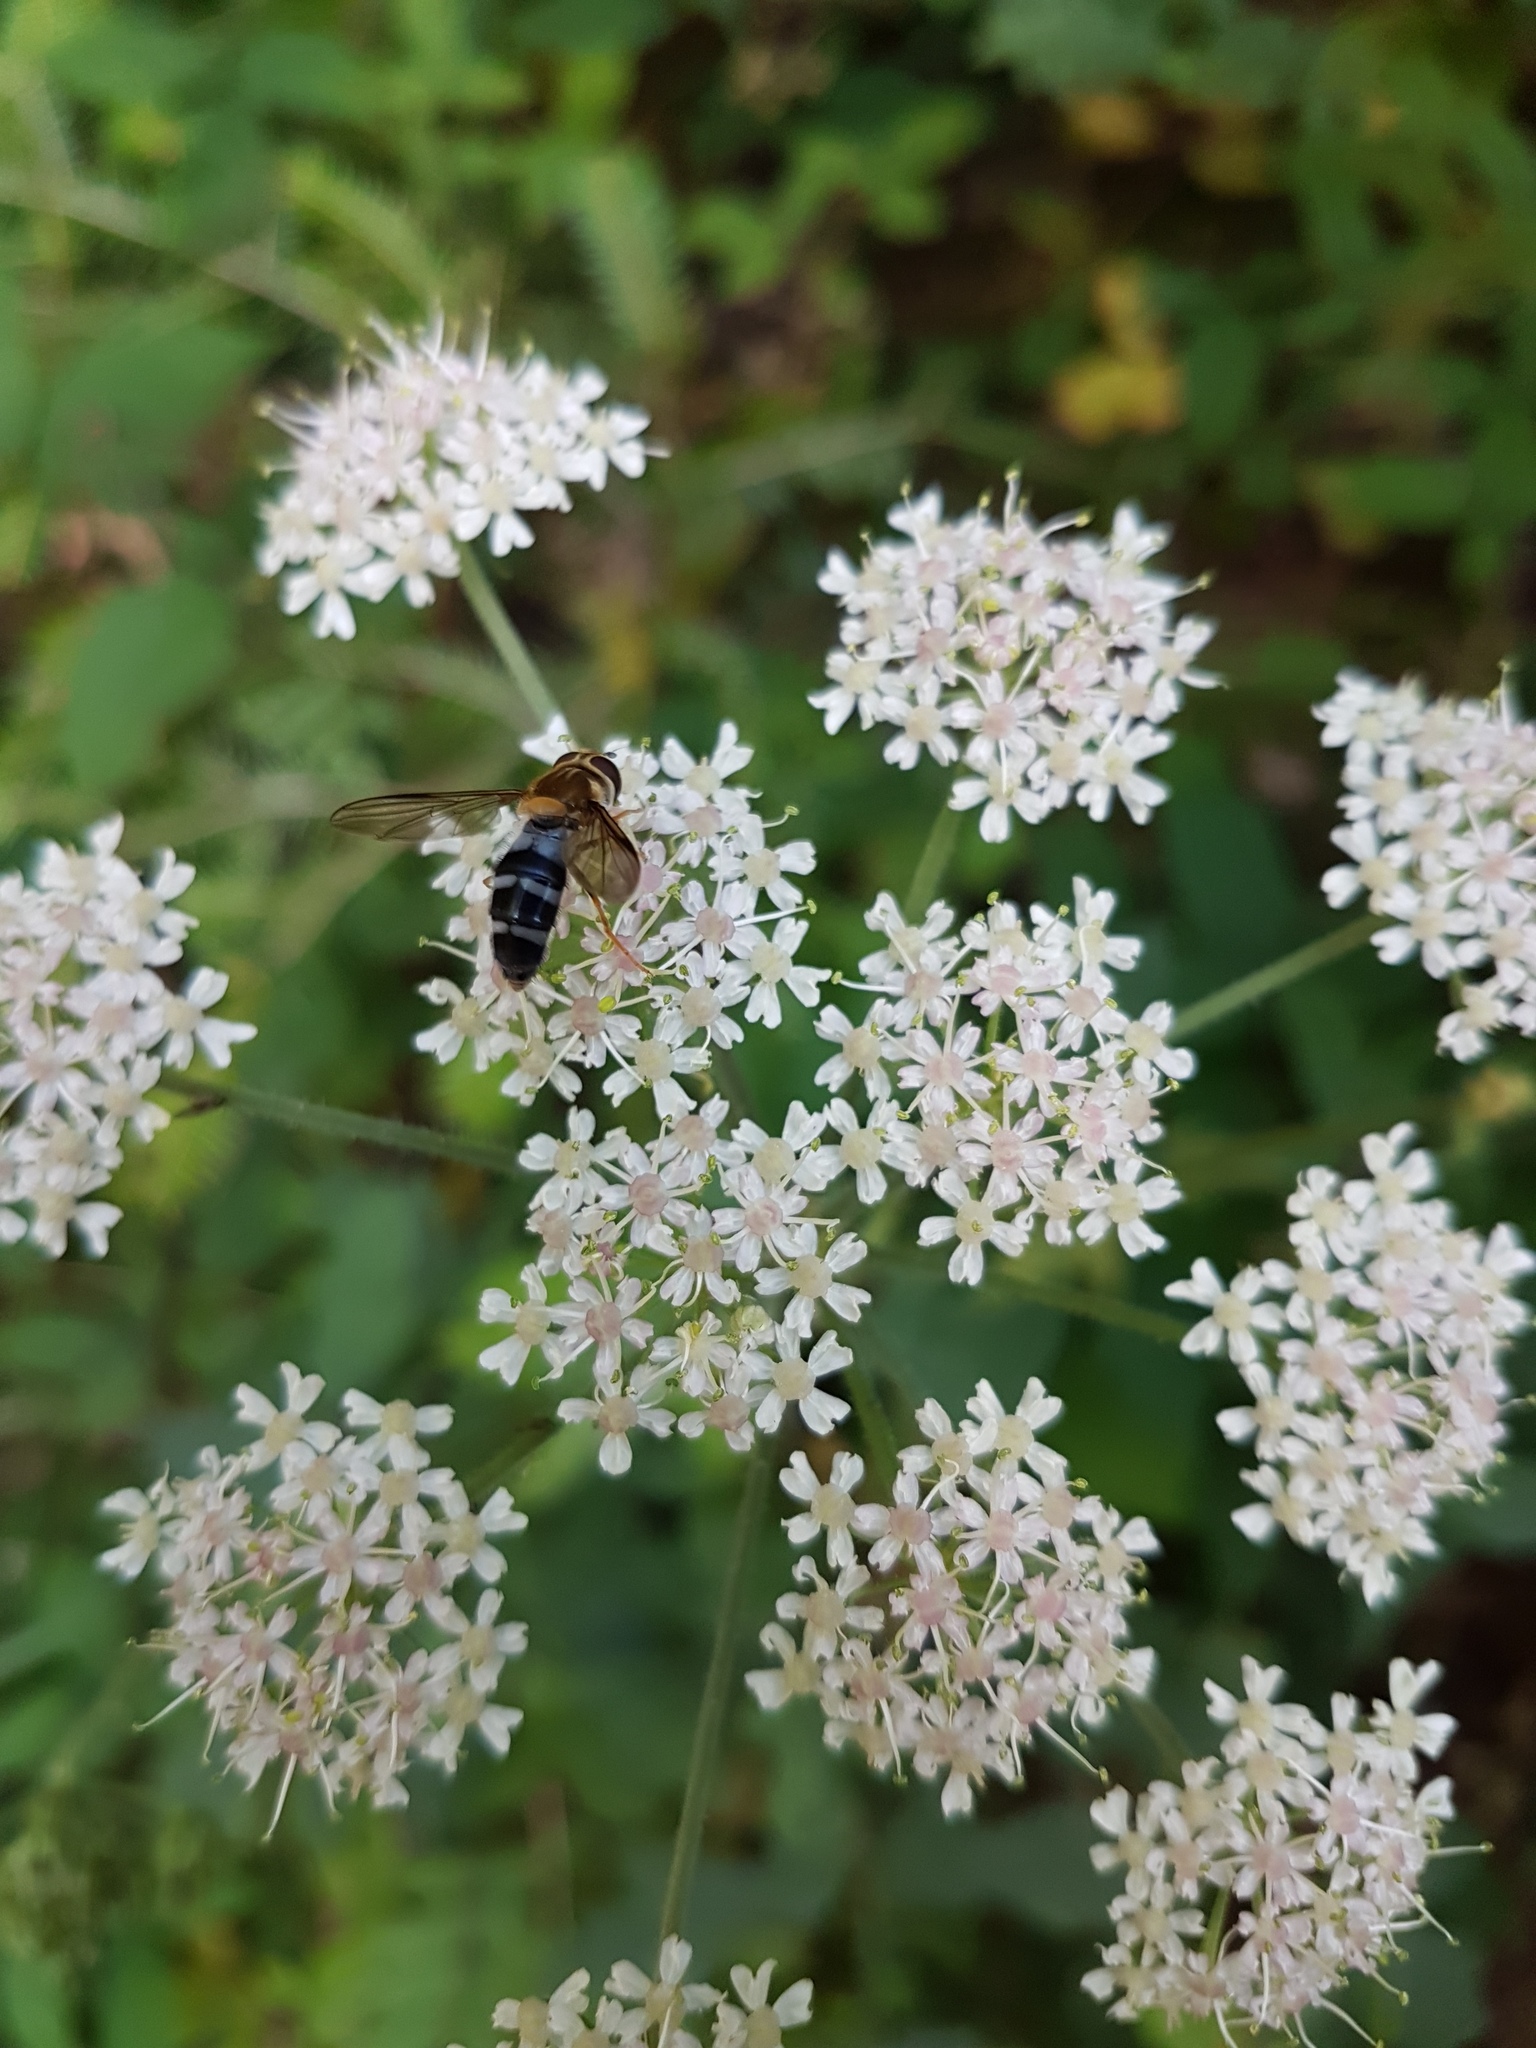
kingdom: Animalia
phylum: Arthropoda
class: Insecta
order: Diptera
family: Syrphidae
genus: Leucozona
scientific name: Leucozona glaucia
